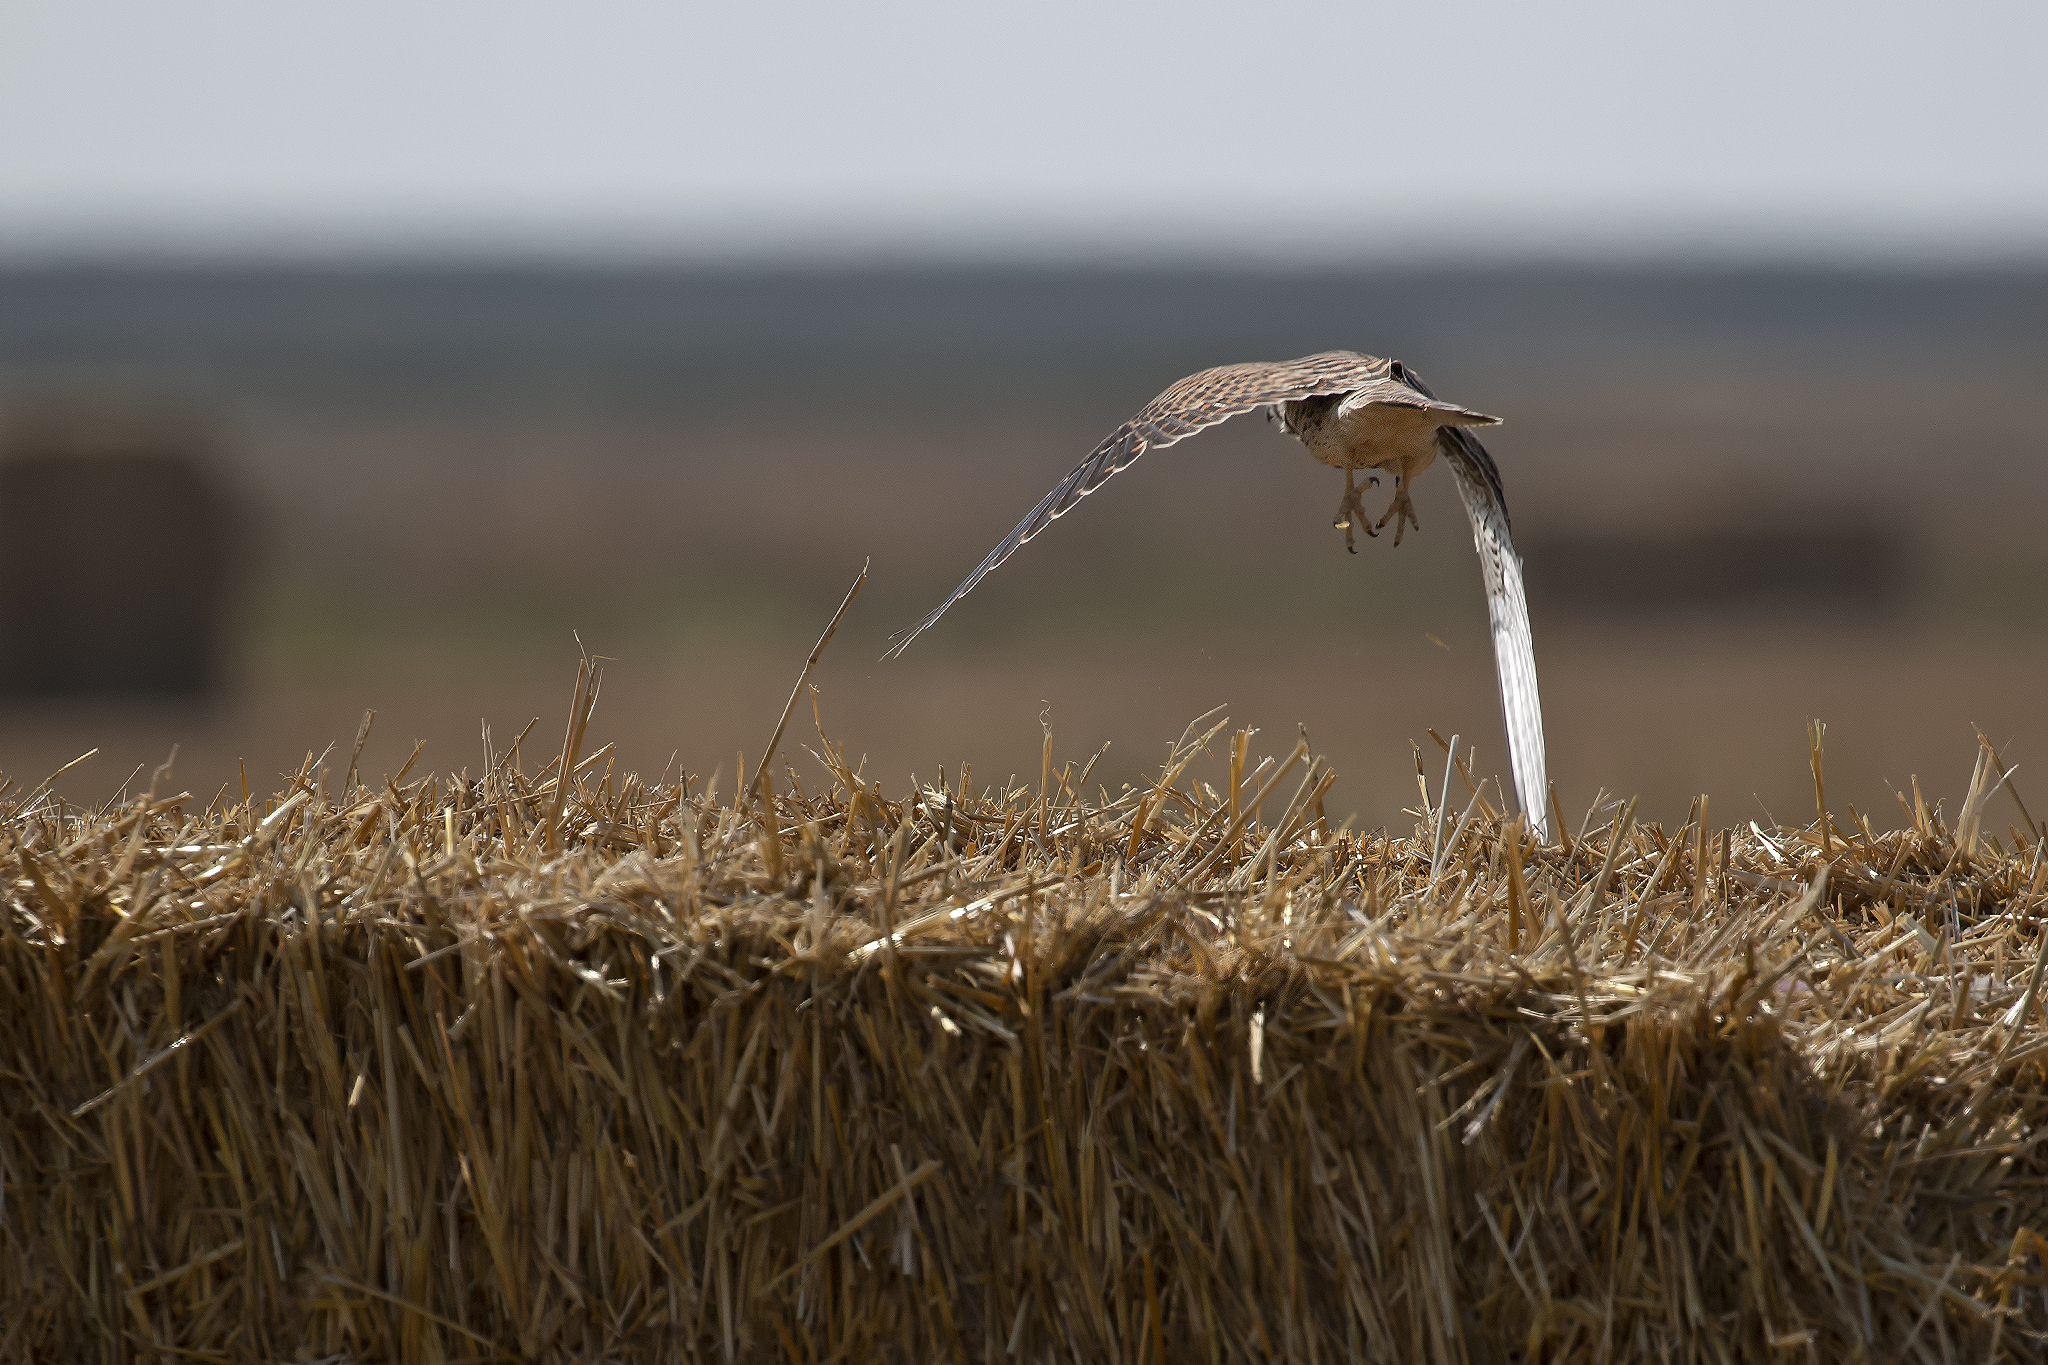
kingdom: Animalia
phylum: Chordata
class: Aves
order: Falconiformes
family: Falconidae
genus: Falco
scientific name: Falco tinnunculus
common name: Common kestrel
